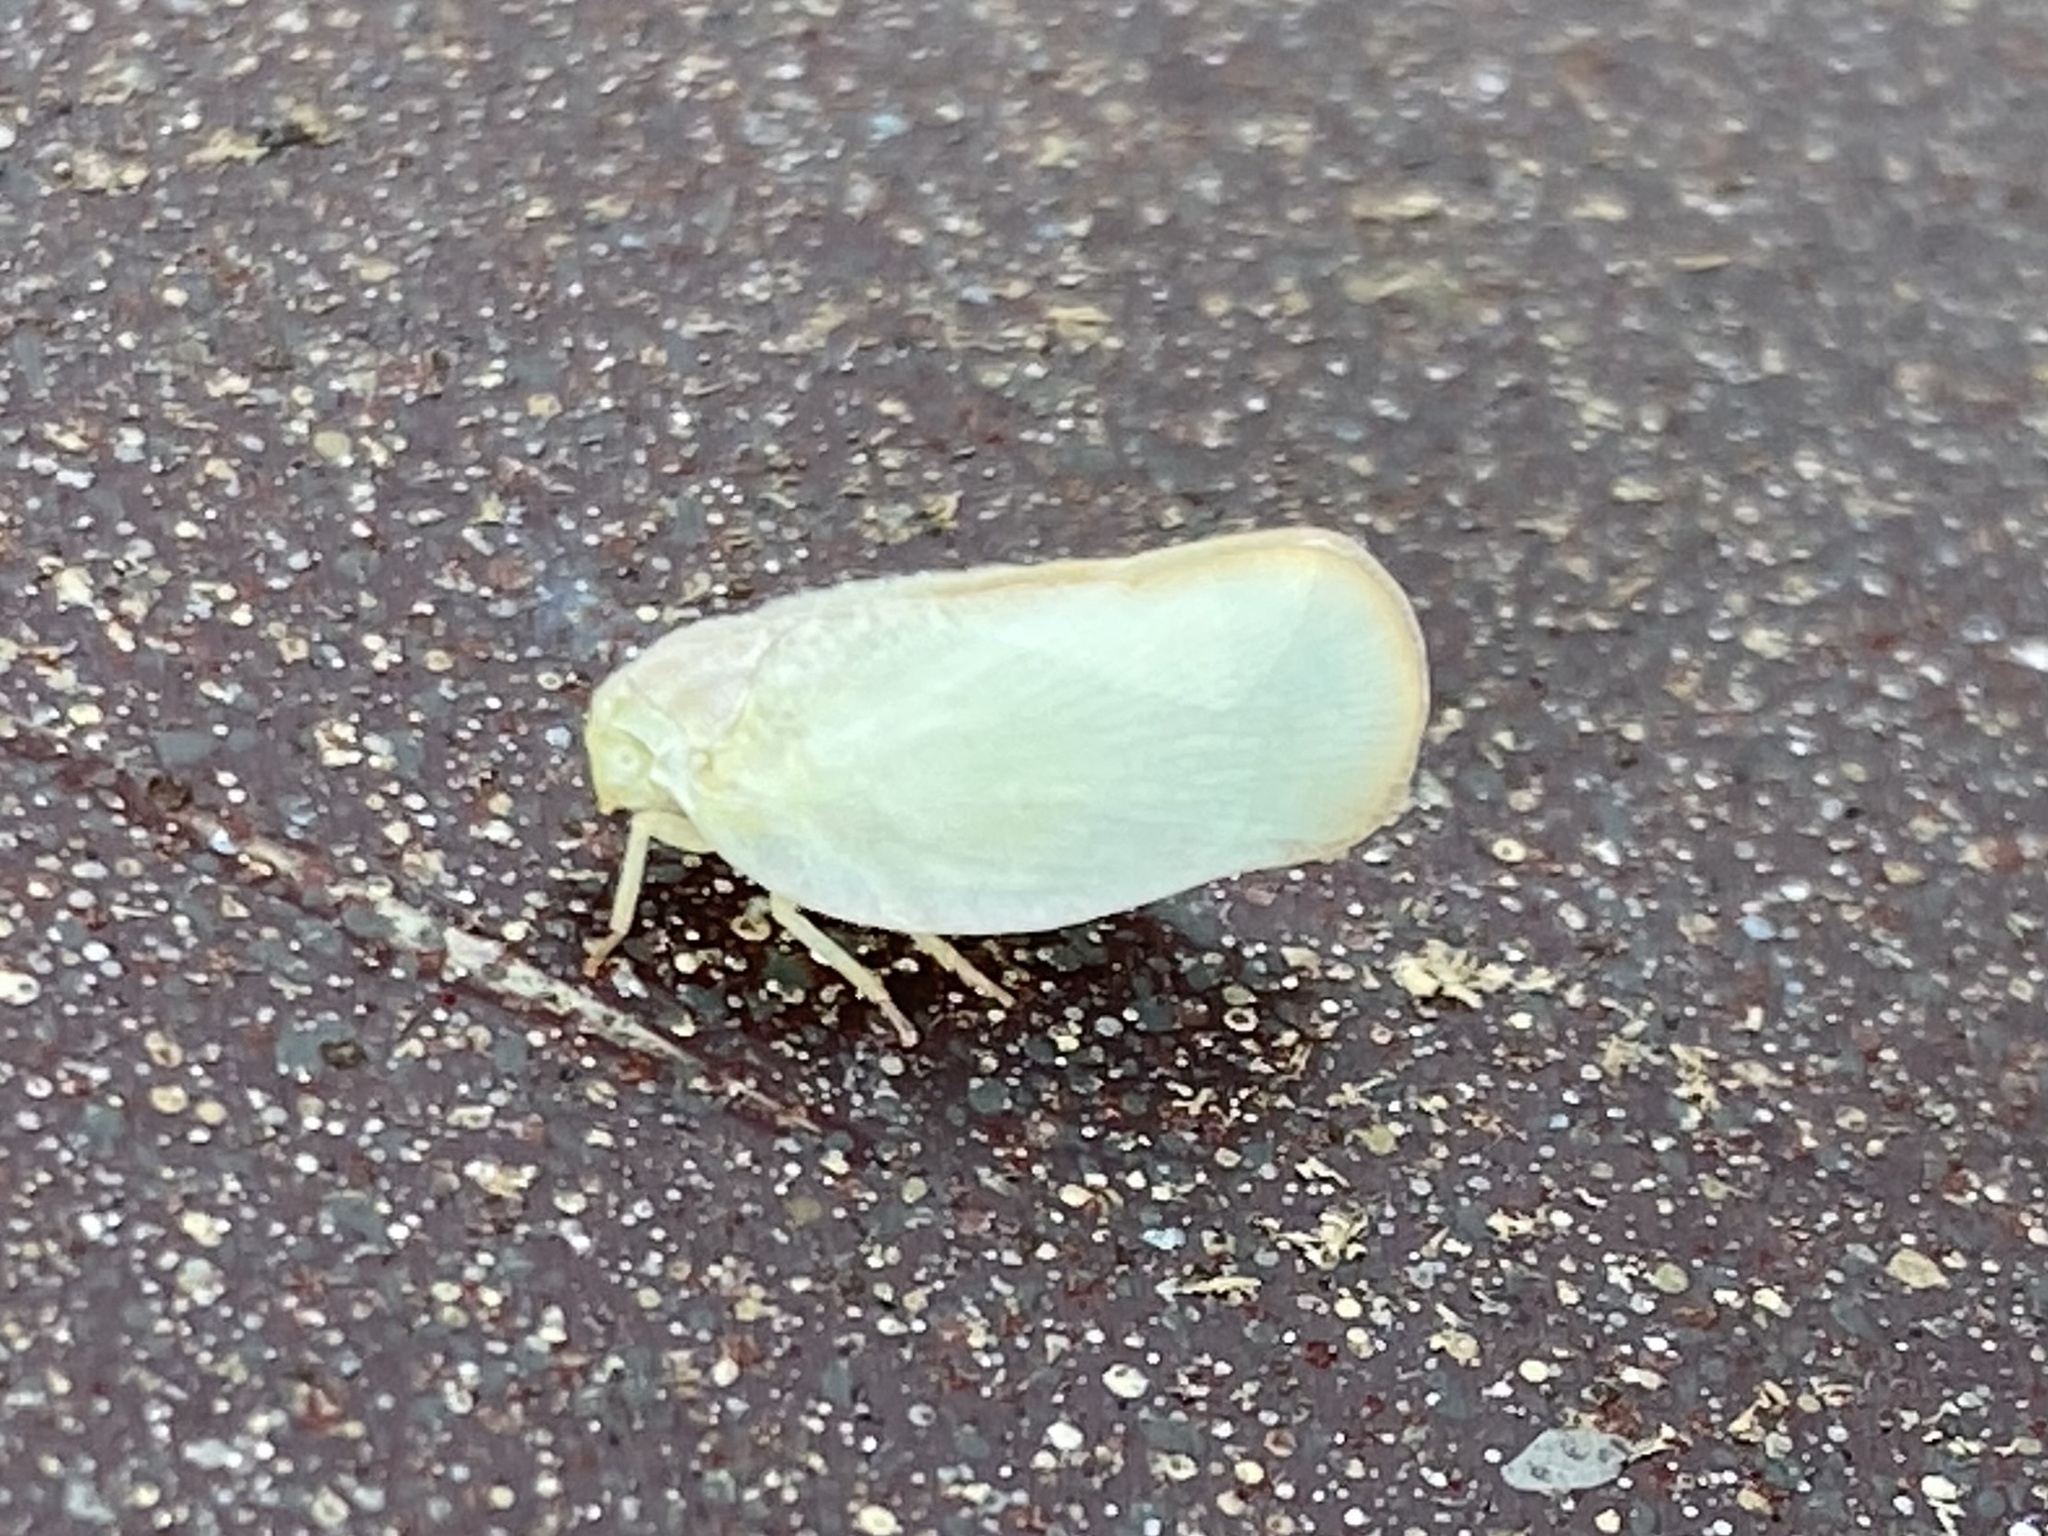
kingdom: Animalia
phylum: Arthropoda
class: Insecta
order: Hemiptera
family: Flatidae
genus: Ormenoides
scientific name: Ormenoides venusta
